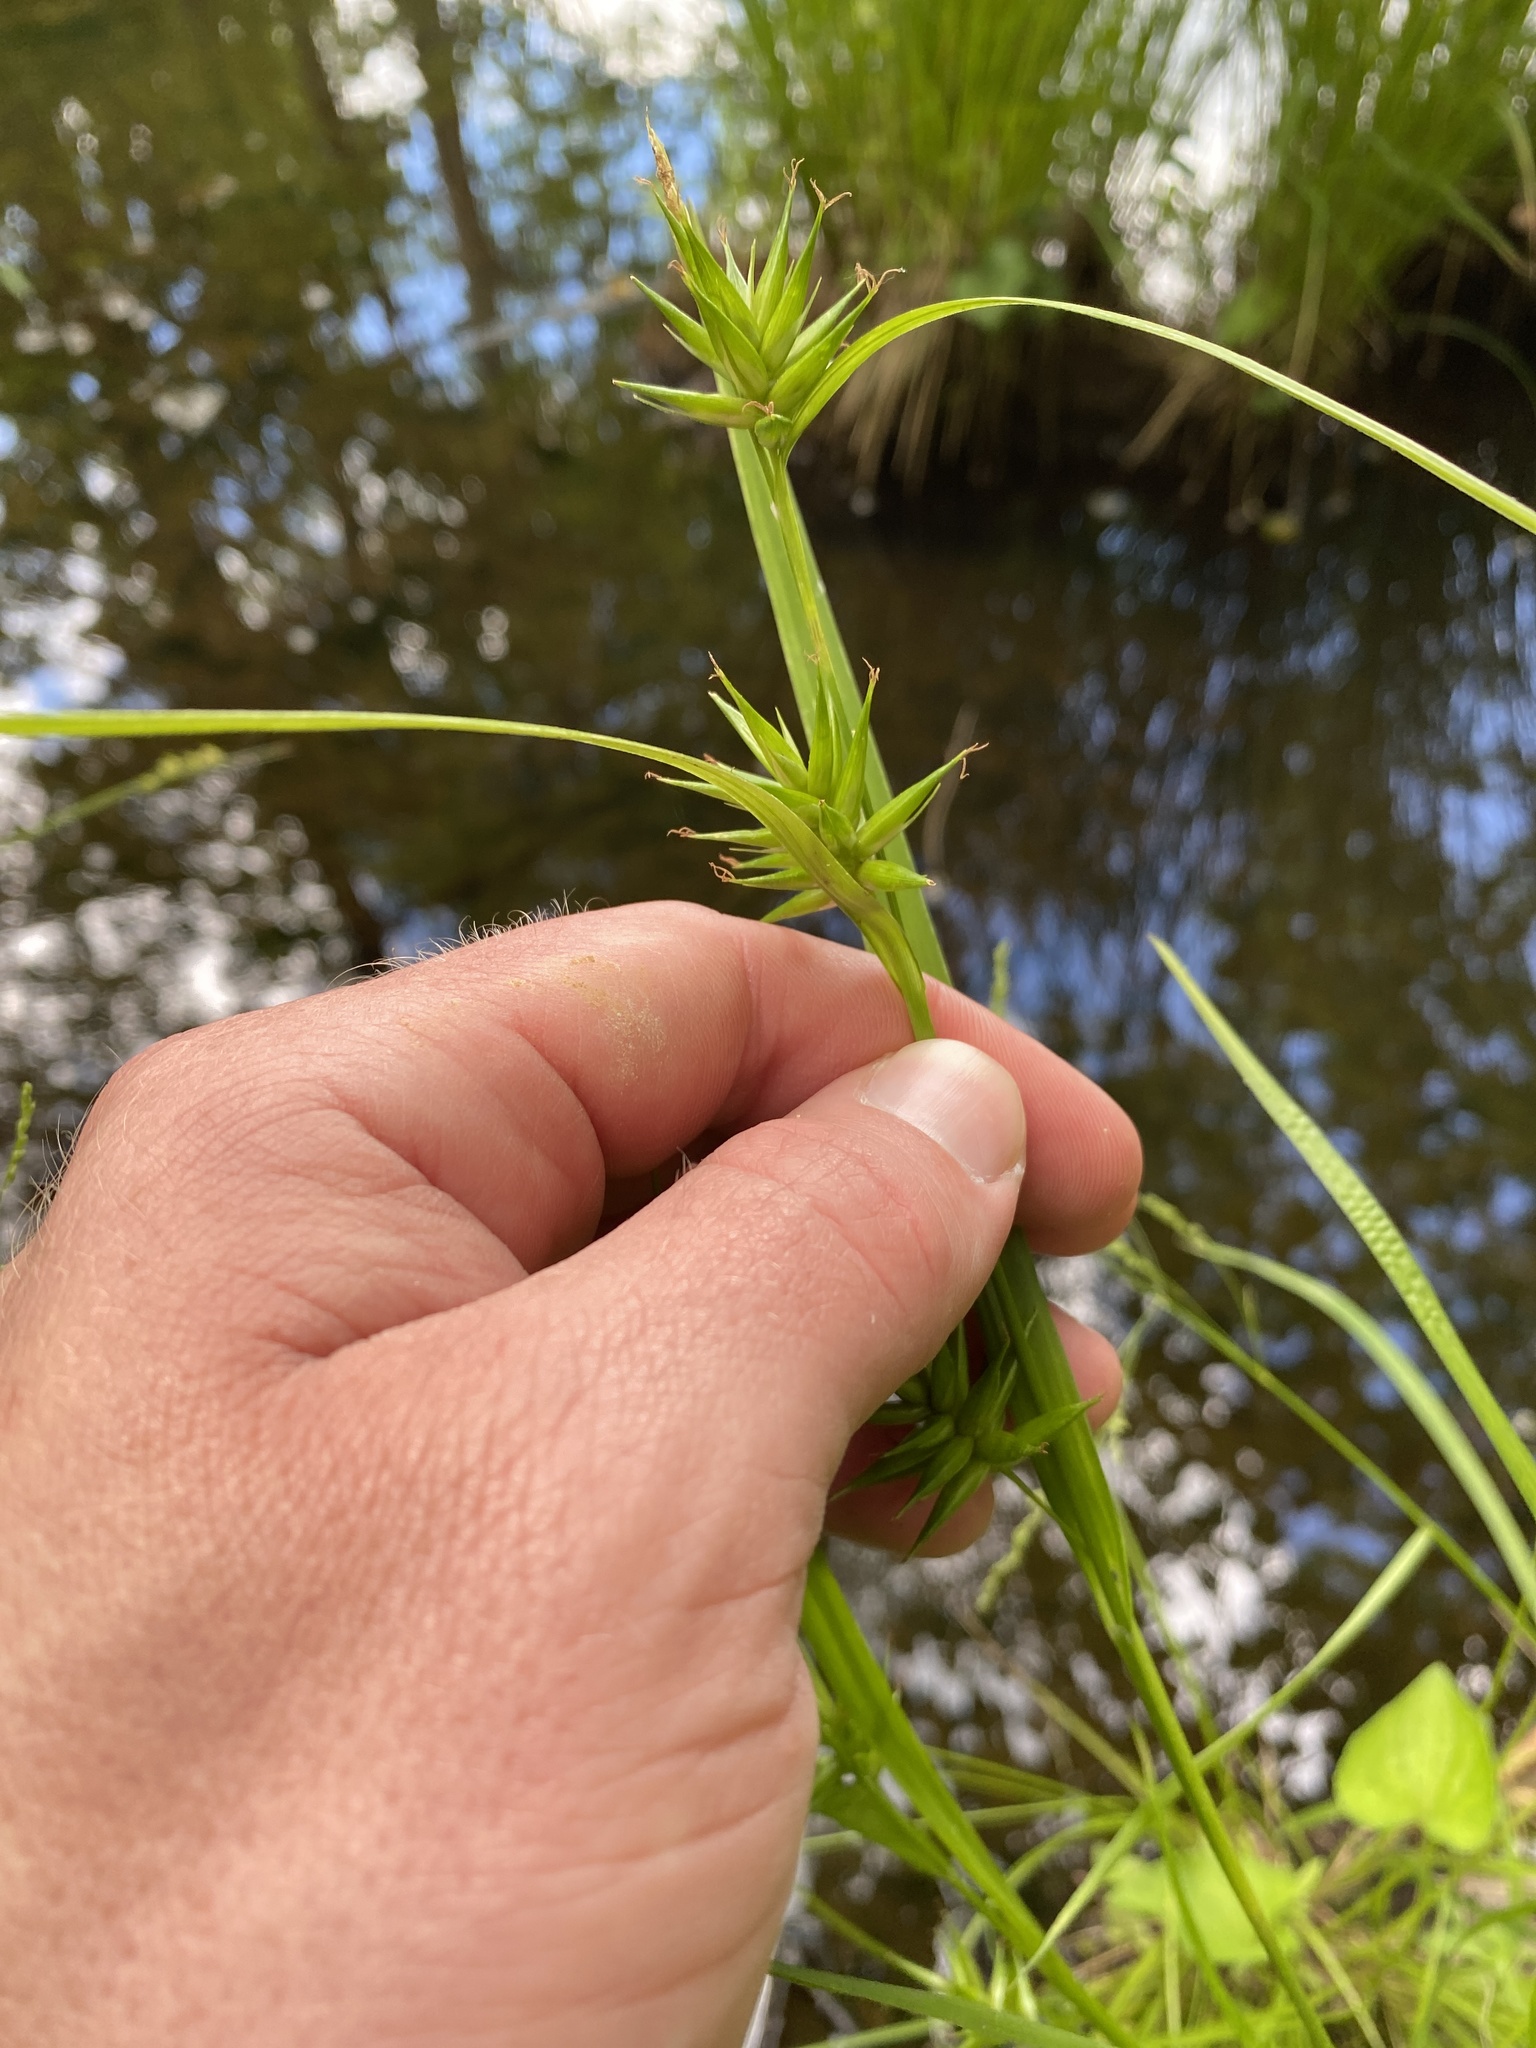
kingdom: Plantae
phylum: Tracheophyta
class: Liliopsida
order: Poales
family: Cyperaceae
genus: Carex
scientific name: Carex folliculata
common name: Northern long sedge
